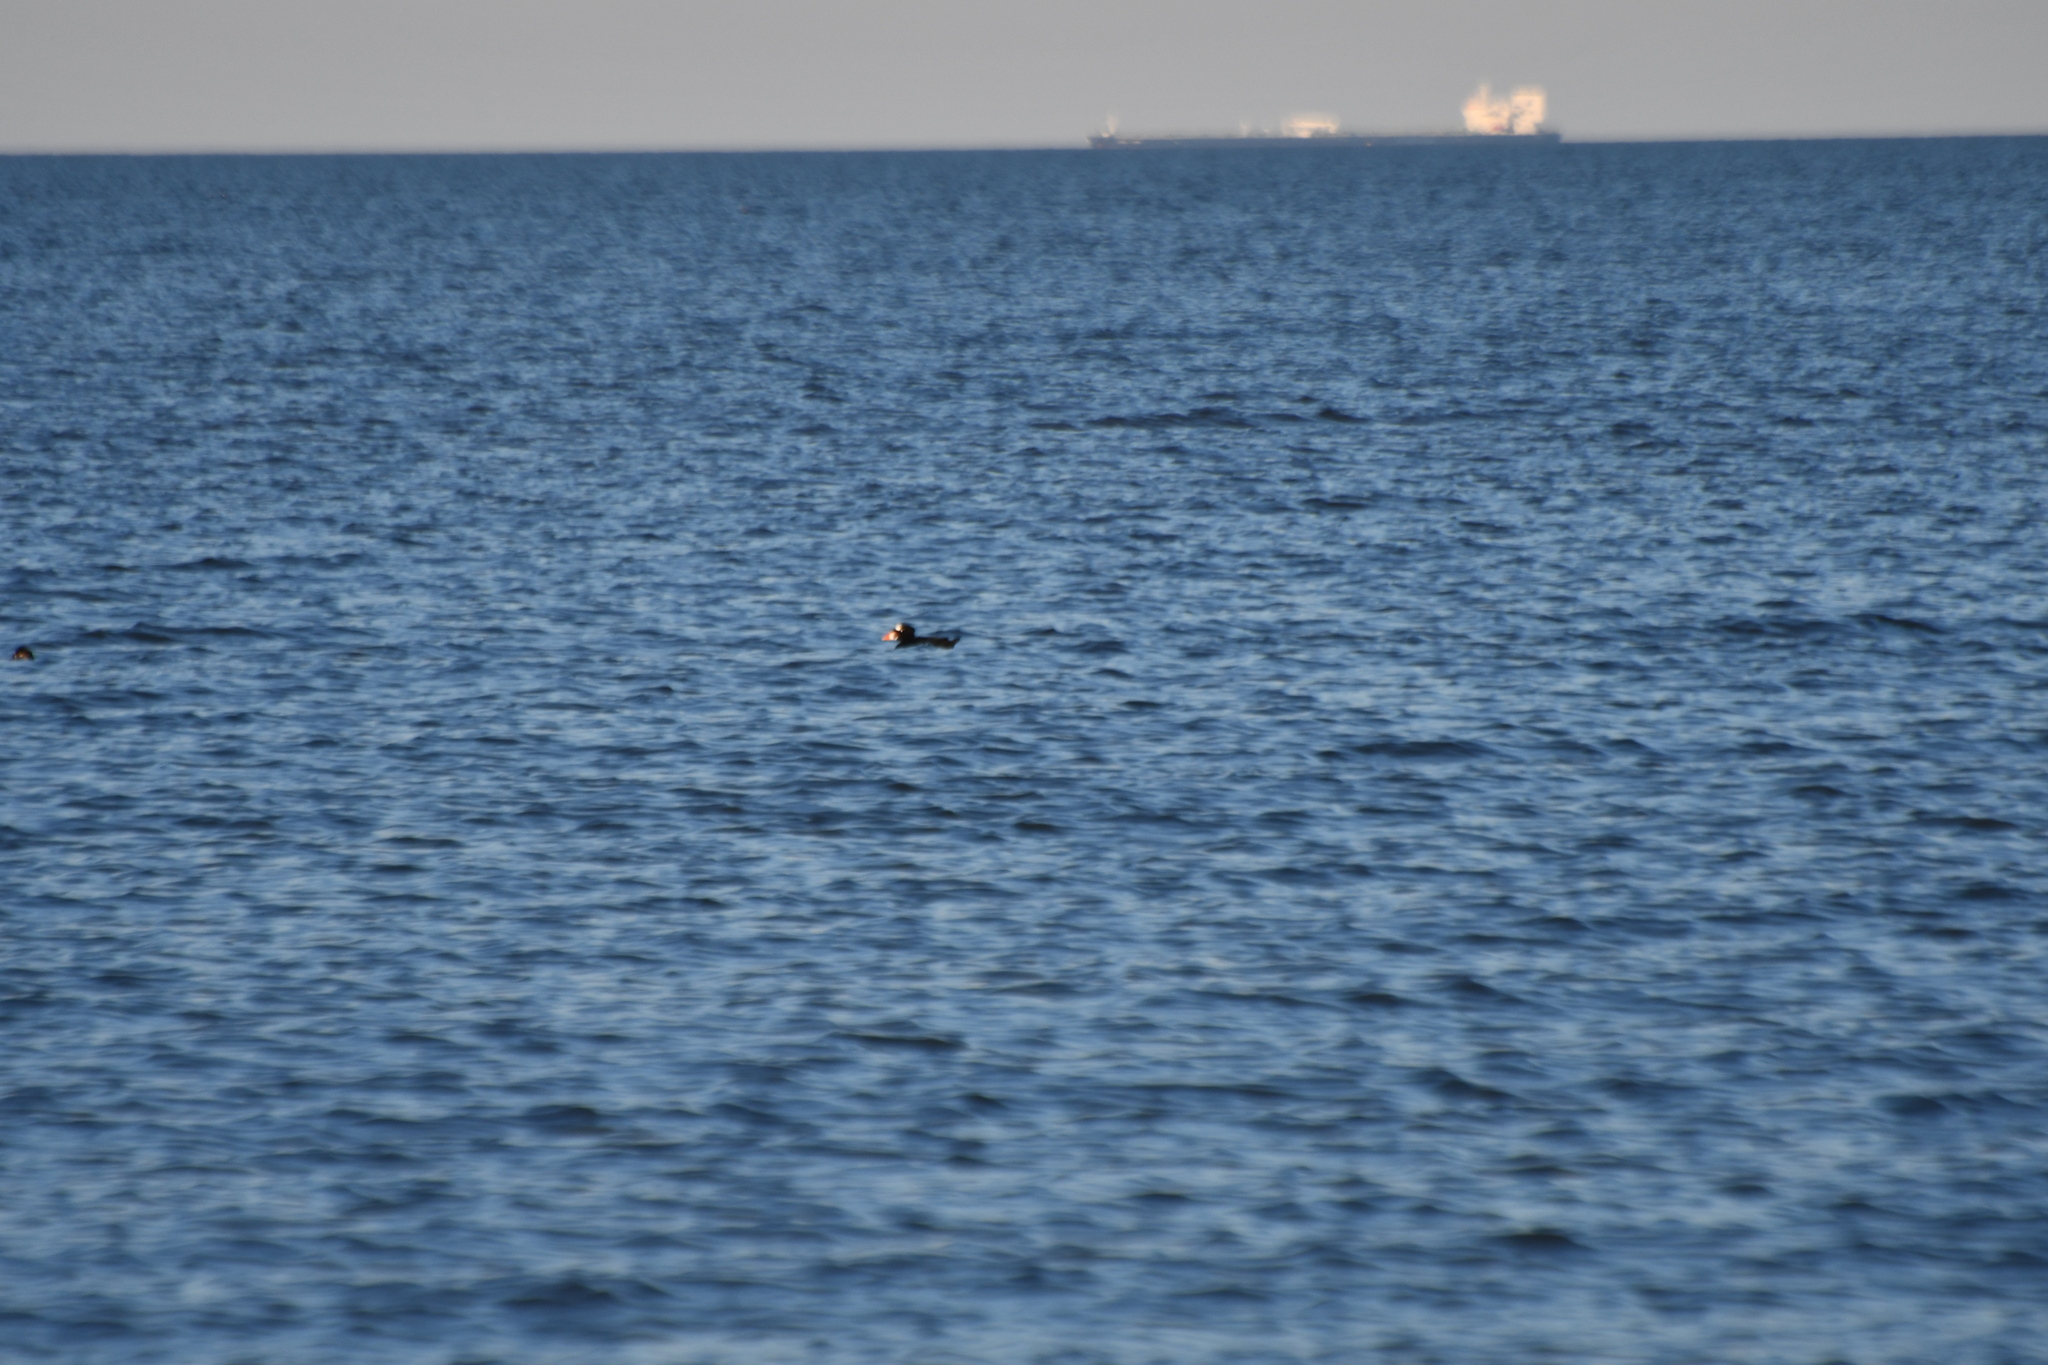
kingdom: Animalia
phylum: Chordata
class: Aves
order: Anseriformes
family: Anatidae
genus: Melanitta
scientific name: Melanitta perspicillata
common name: Surf scoter
